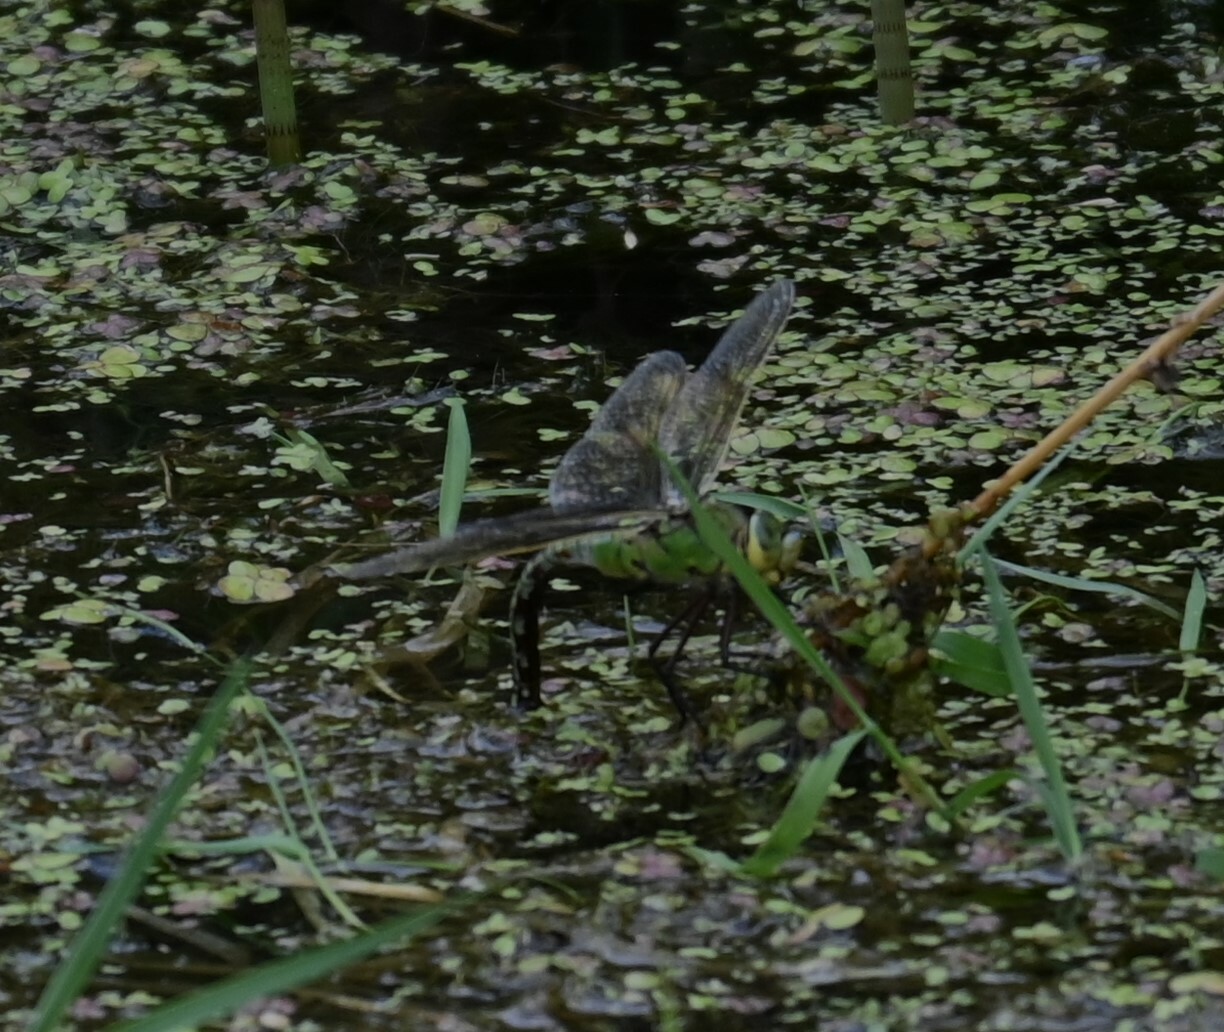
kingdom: Animalia
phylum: Arthropoda
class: Insecta
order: Odonata
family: Aeshnidae
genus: Anax
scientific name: Anax imperator
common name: Emperor dragonfly
